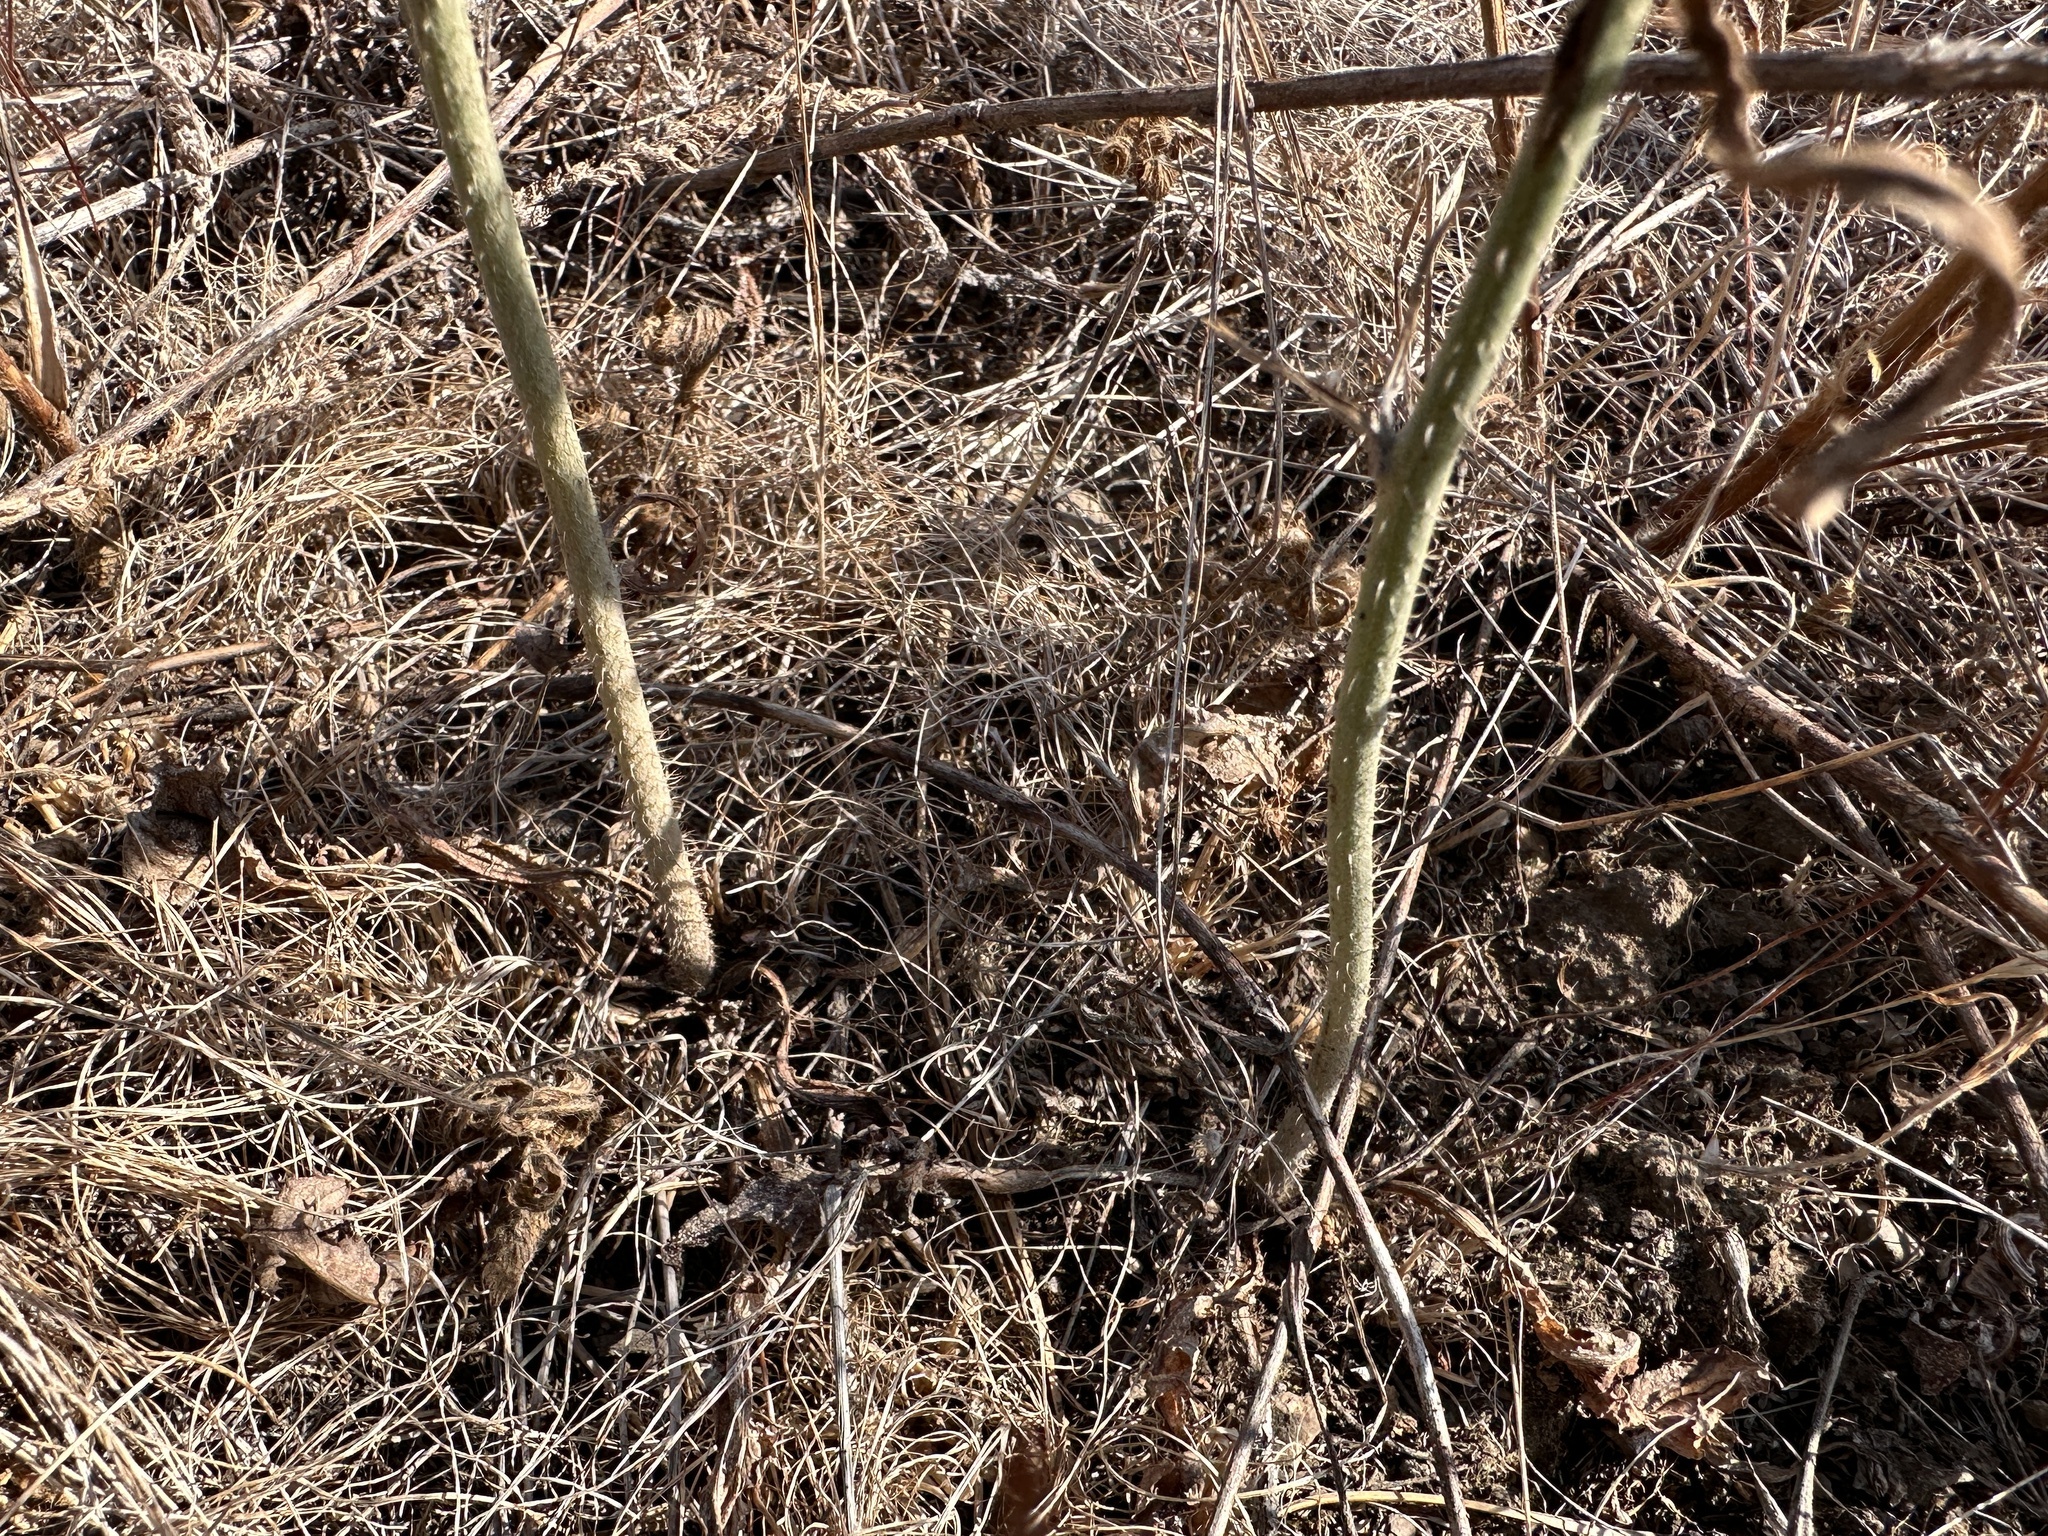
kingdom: Plantae
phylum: Tracheophyta
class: Magnoliopsida
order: Asterales
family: Asteraceae
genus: Chondrilla
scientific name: Chondrilla juncea
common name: Skeleton weed
